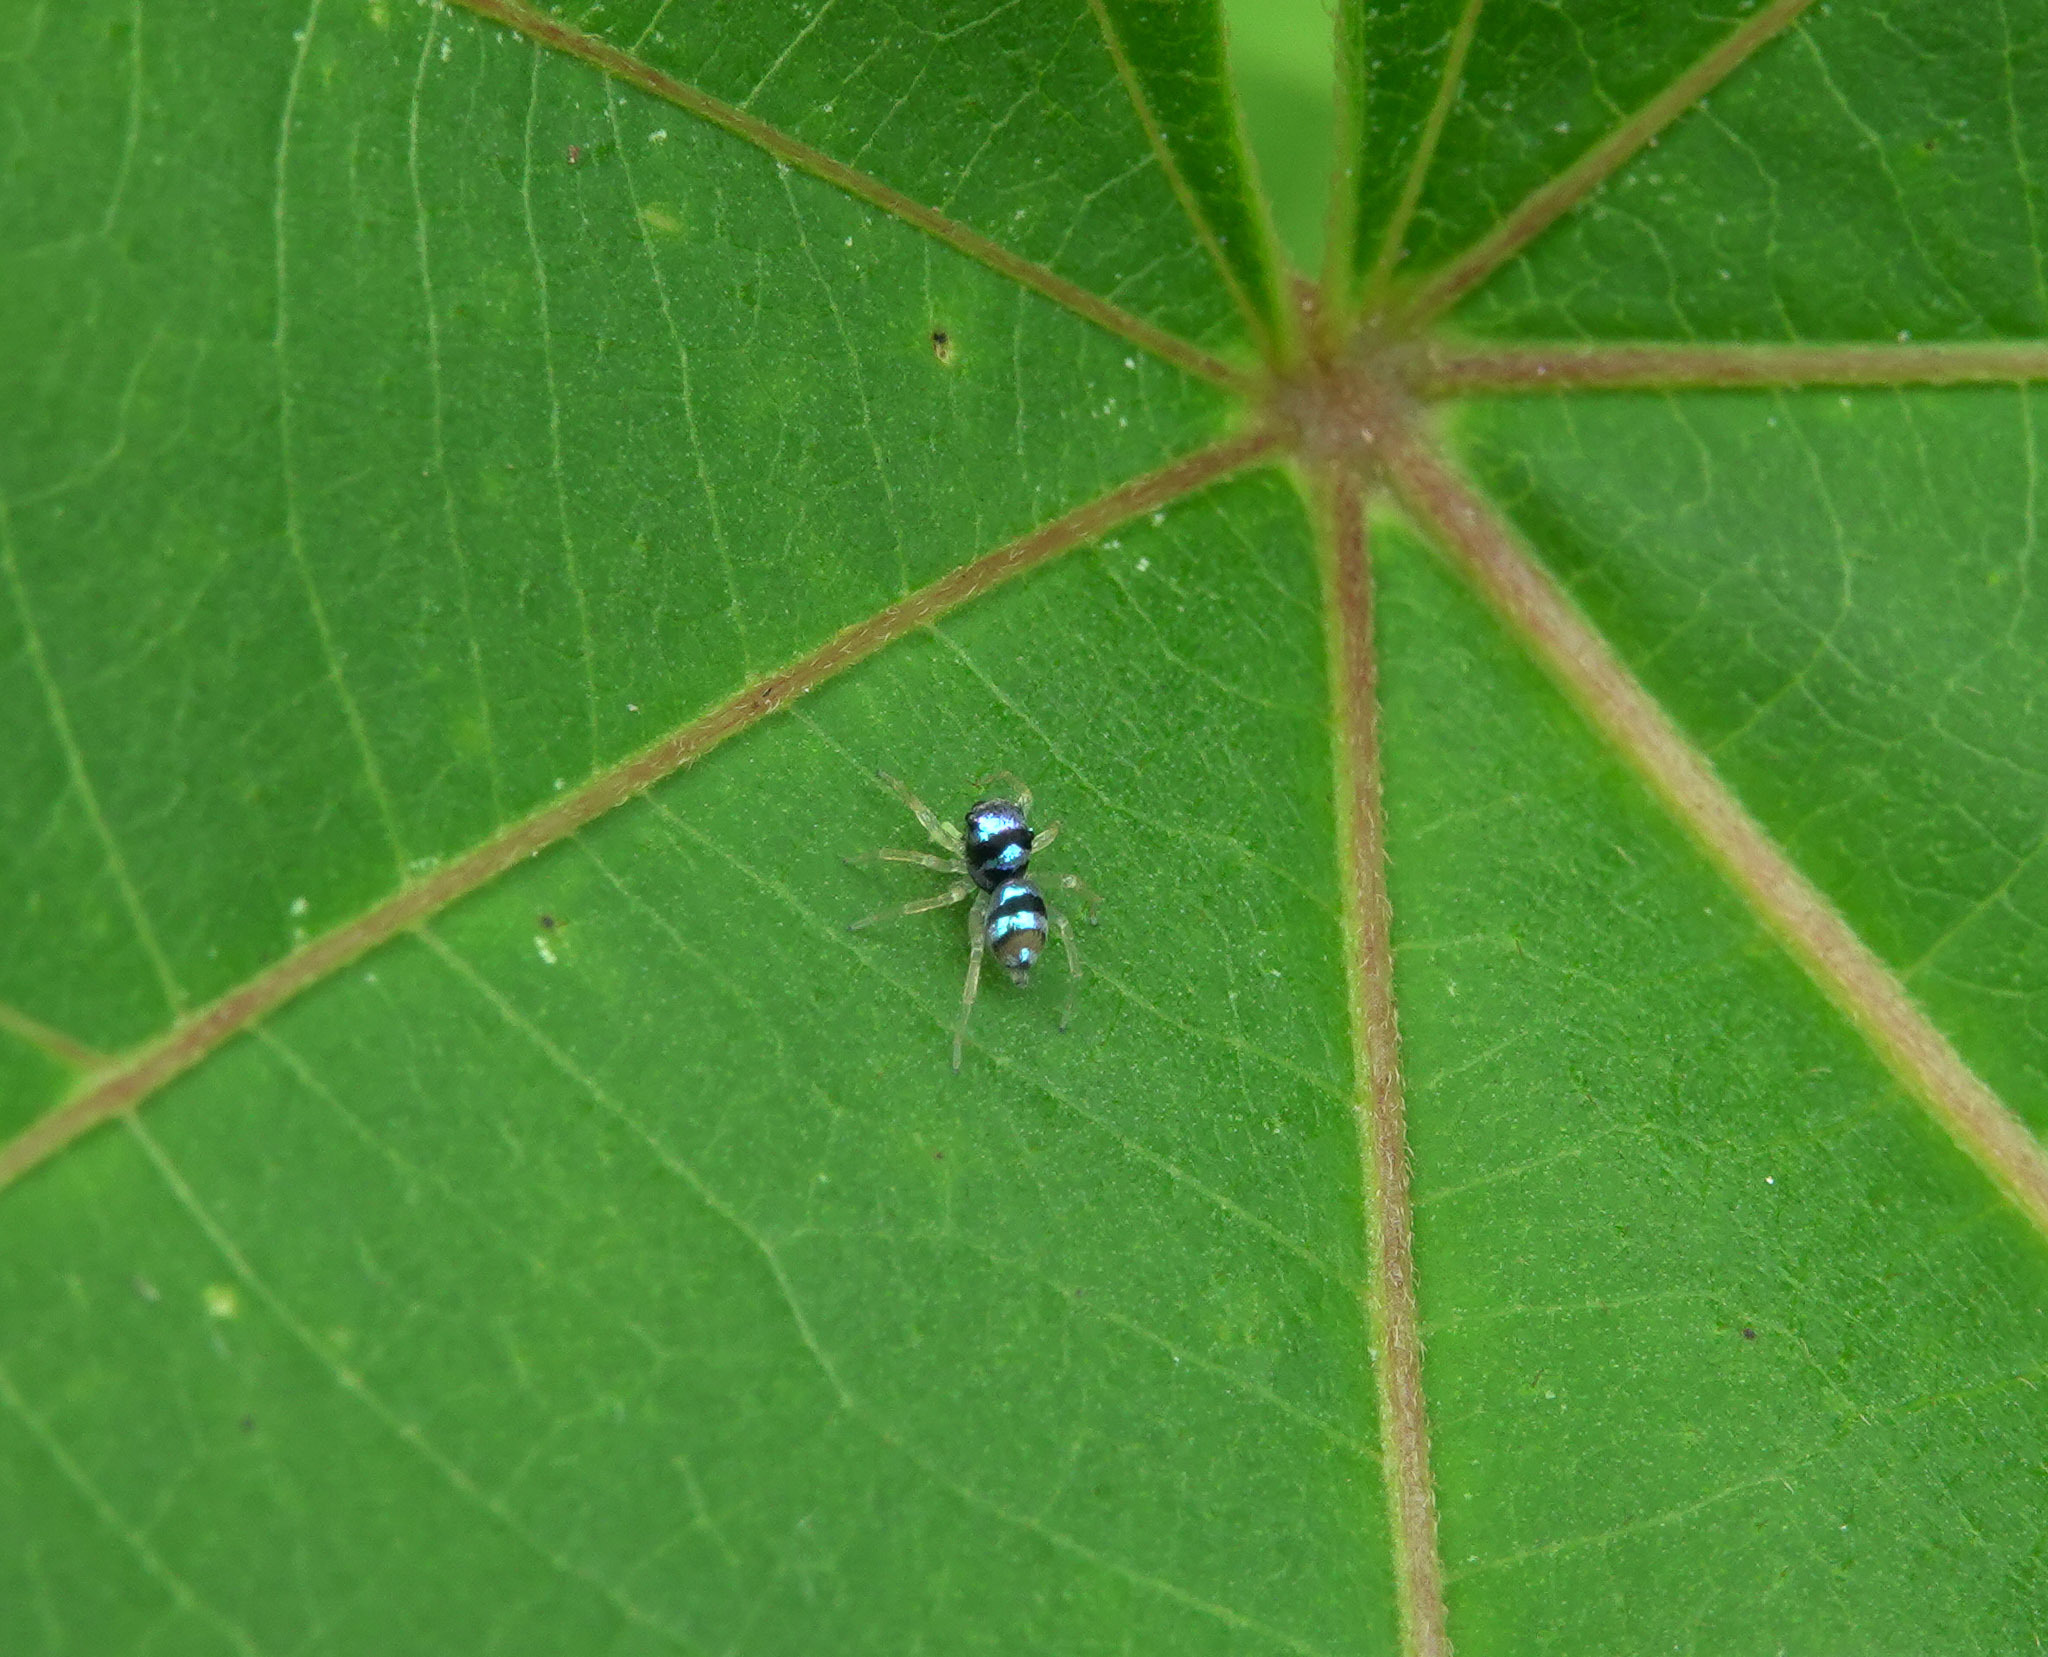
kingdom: Animalia
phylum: Arthropoda
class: Arachnida
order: Araneae
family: Salticidae
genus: Phintella
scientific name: Phintella vittata
